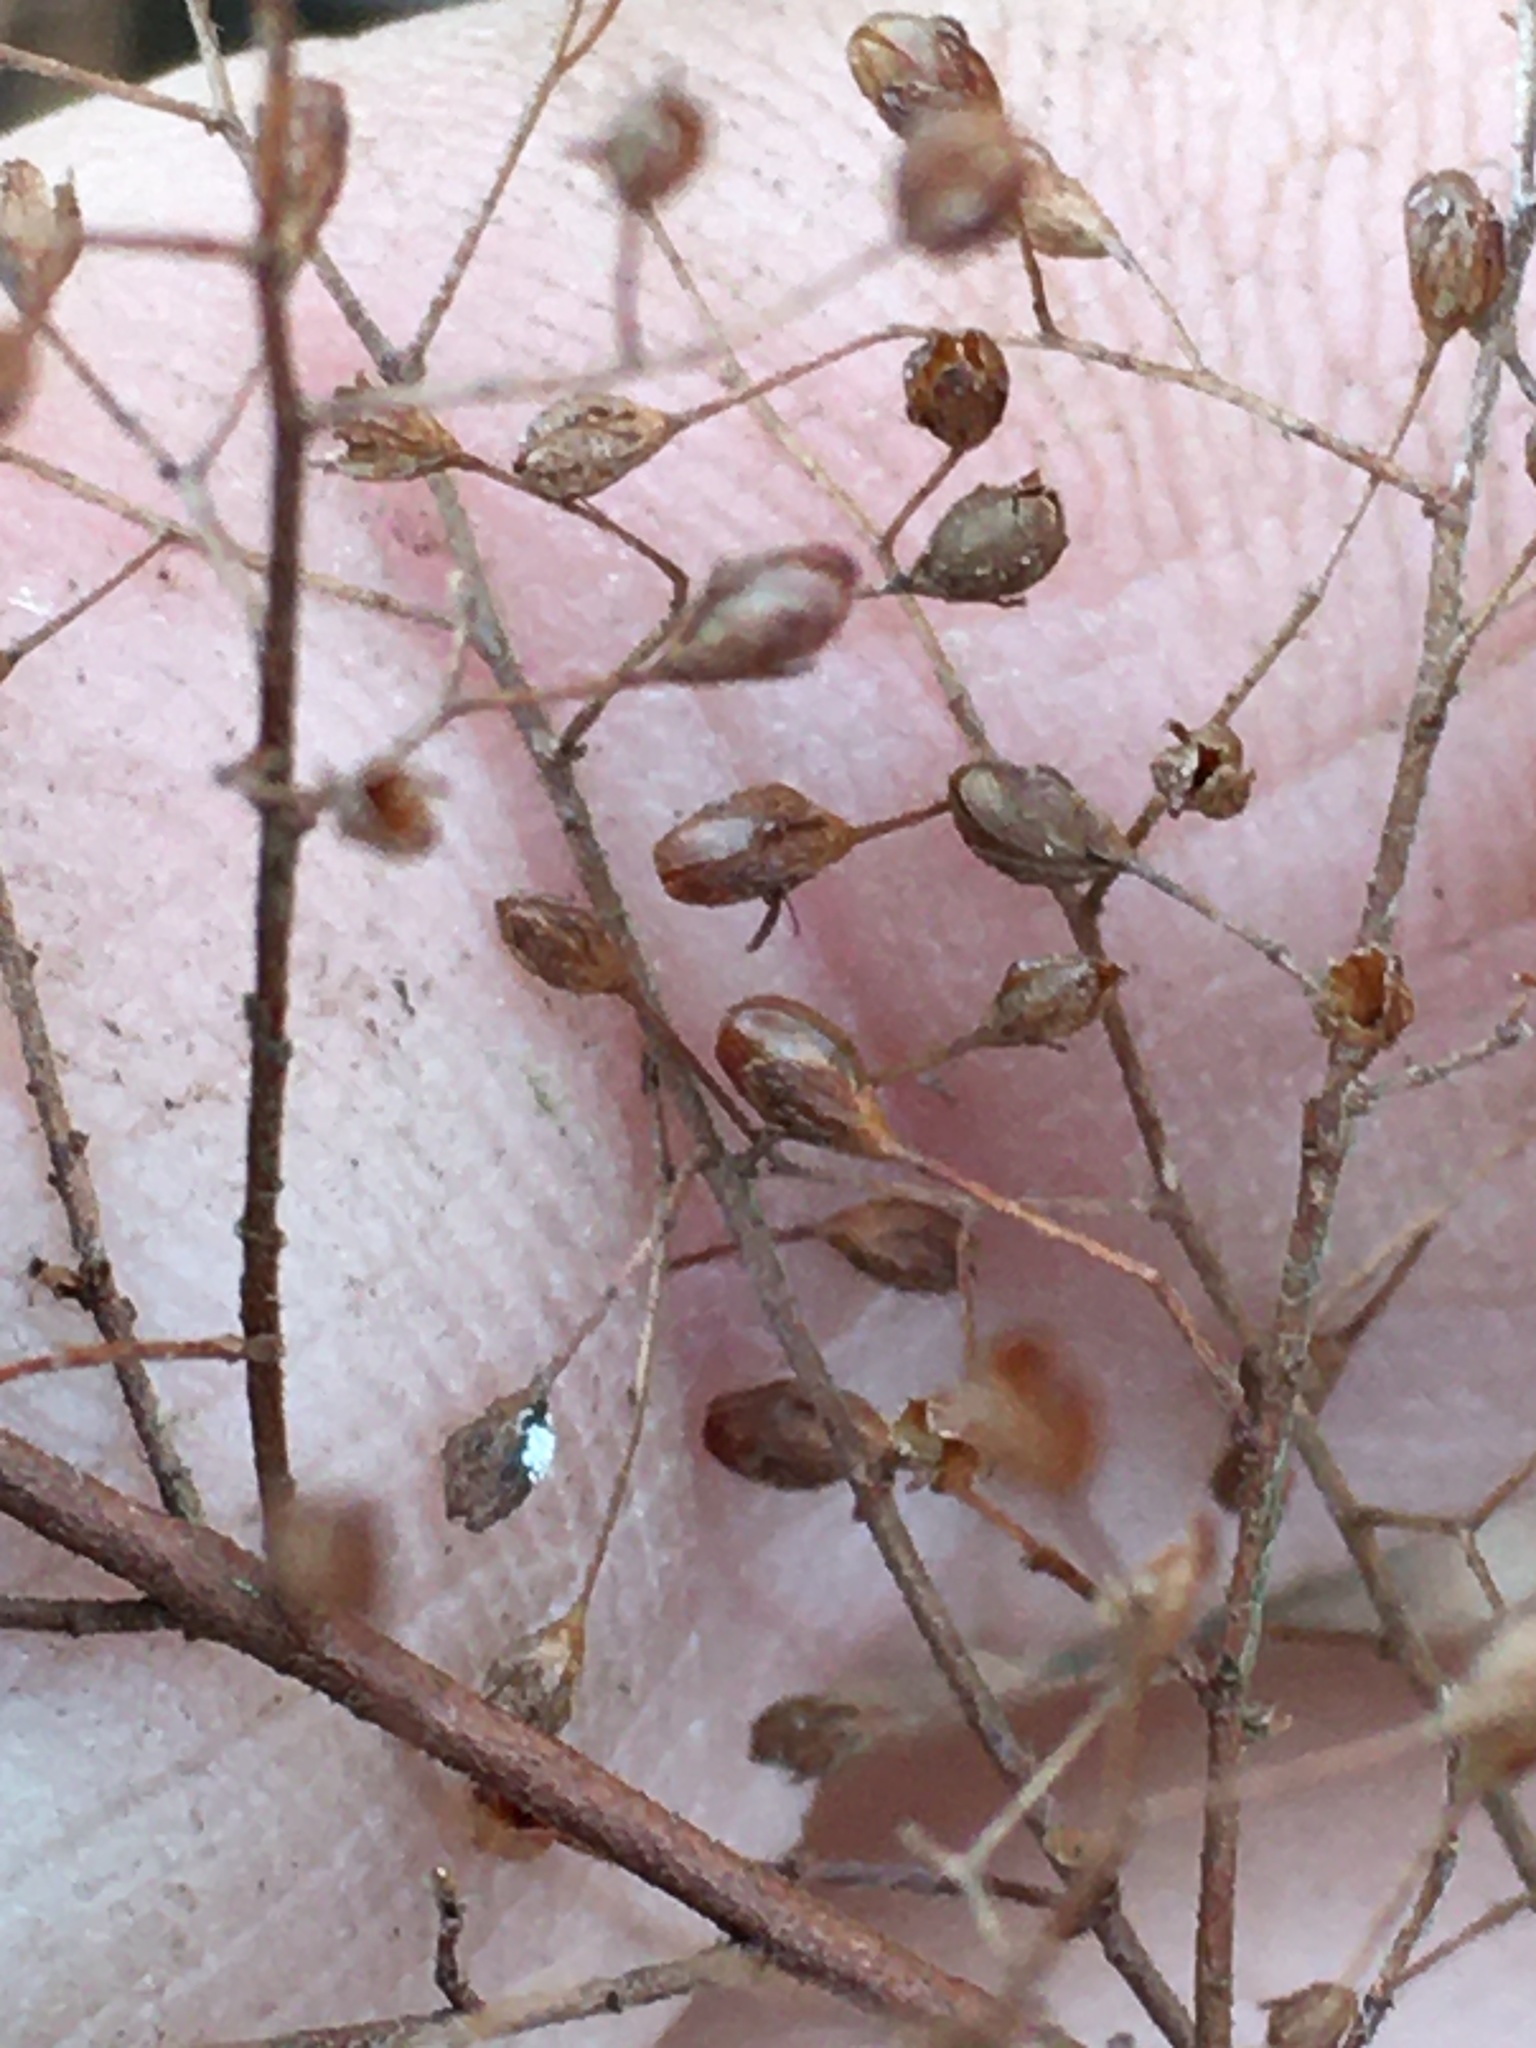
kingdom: Plantae
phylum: Tracheophyta
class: Magnoliopsida
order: Malvales
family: Cistaceae
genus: Lechea
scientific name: Lechea racemulosa
